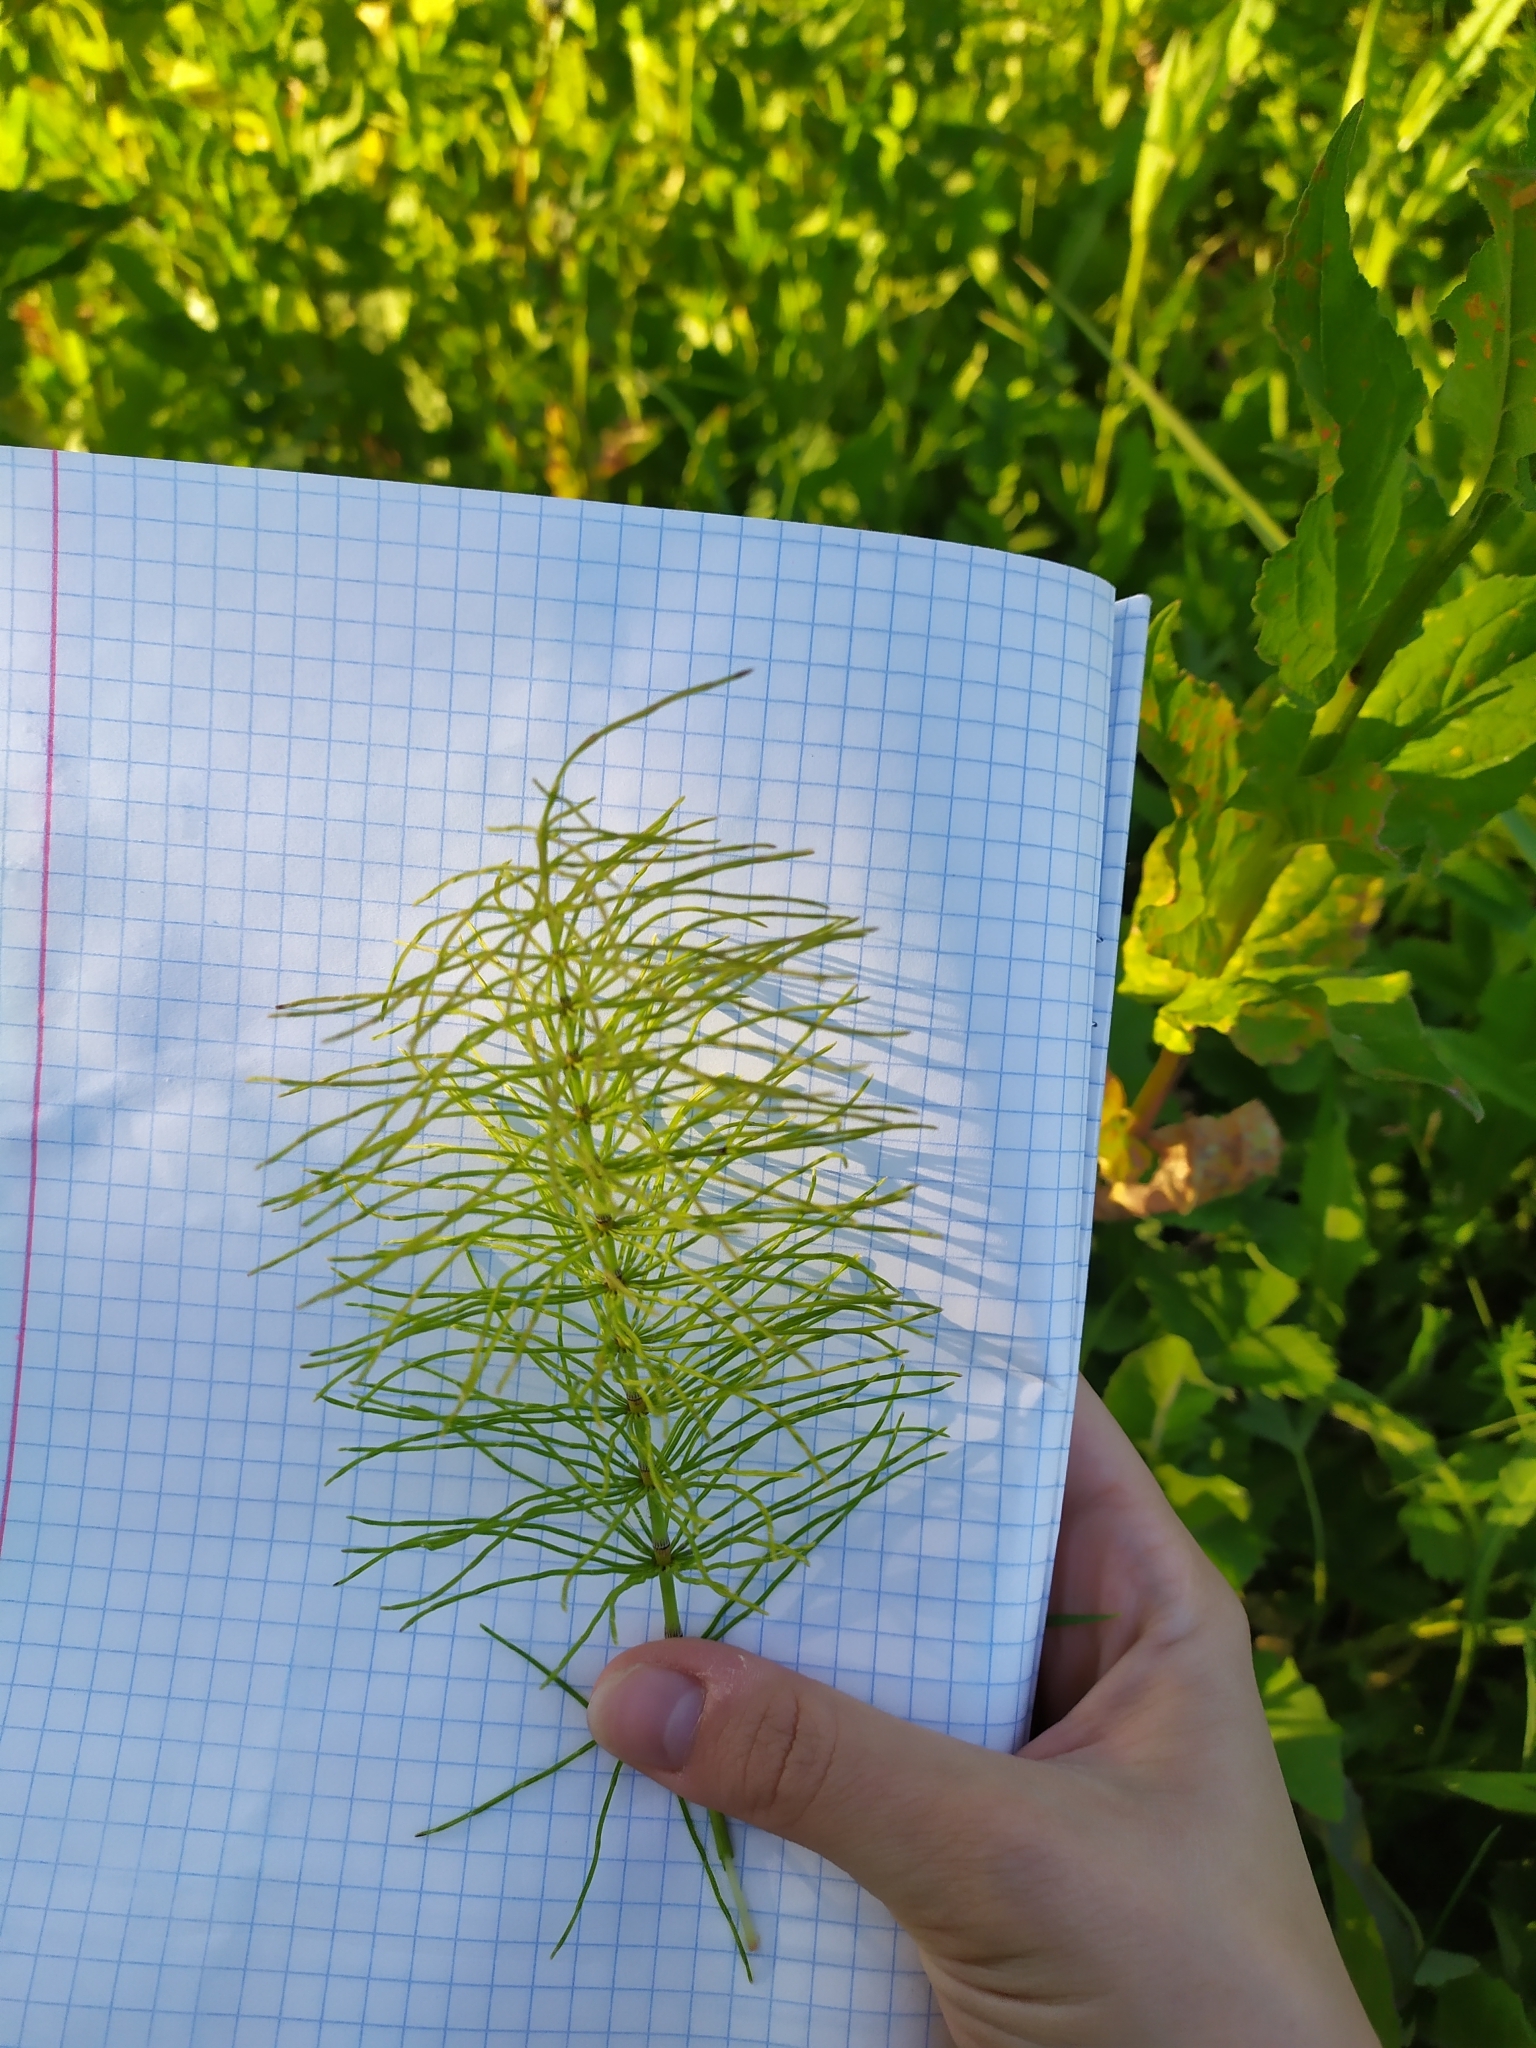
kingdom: Plantae
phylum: Tracheophyta
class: Polypodiopsida
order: Equisetales
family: Equisetaceae
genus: Equisetum
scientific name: Equisetum pratense
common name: Meadow horsetail
